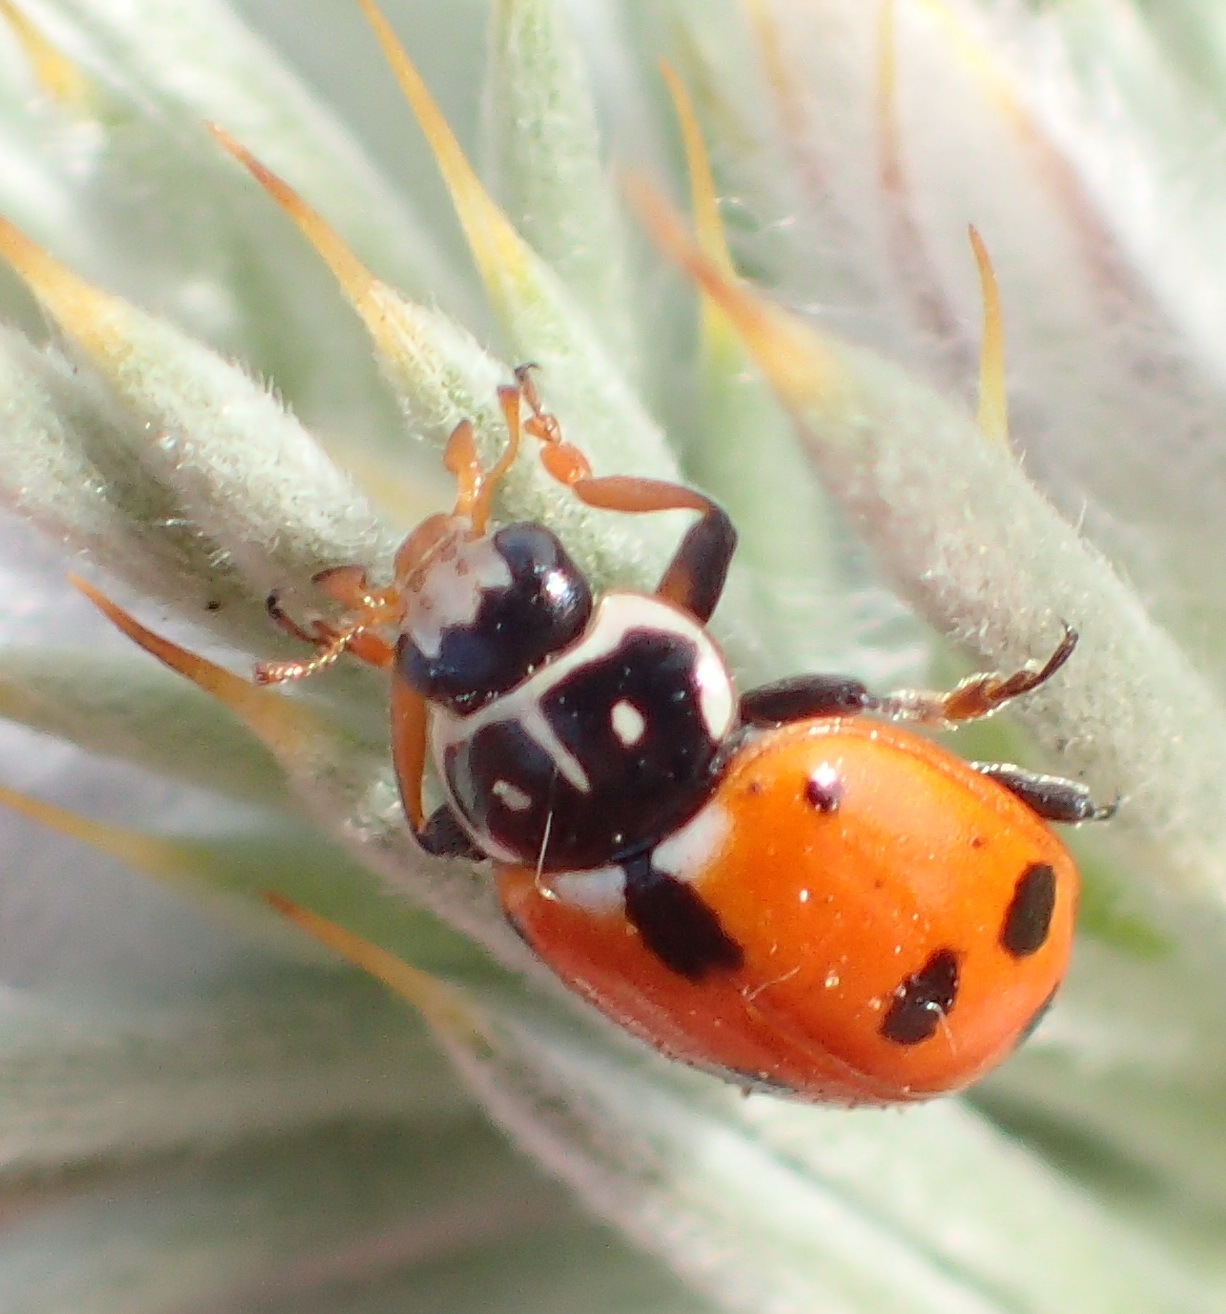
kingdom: Animalia
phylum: Arthropoda
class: Insecta
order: Coleoptera
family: Coccinellidae
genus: Hippodamia
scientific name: Hippodamia variegata
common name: Ladybird beetle
